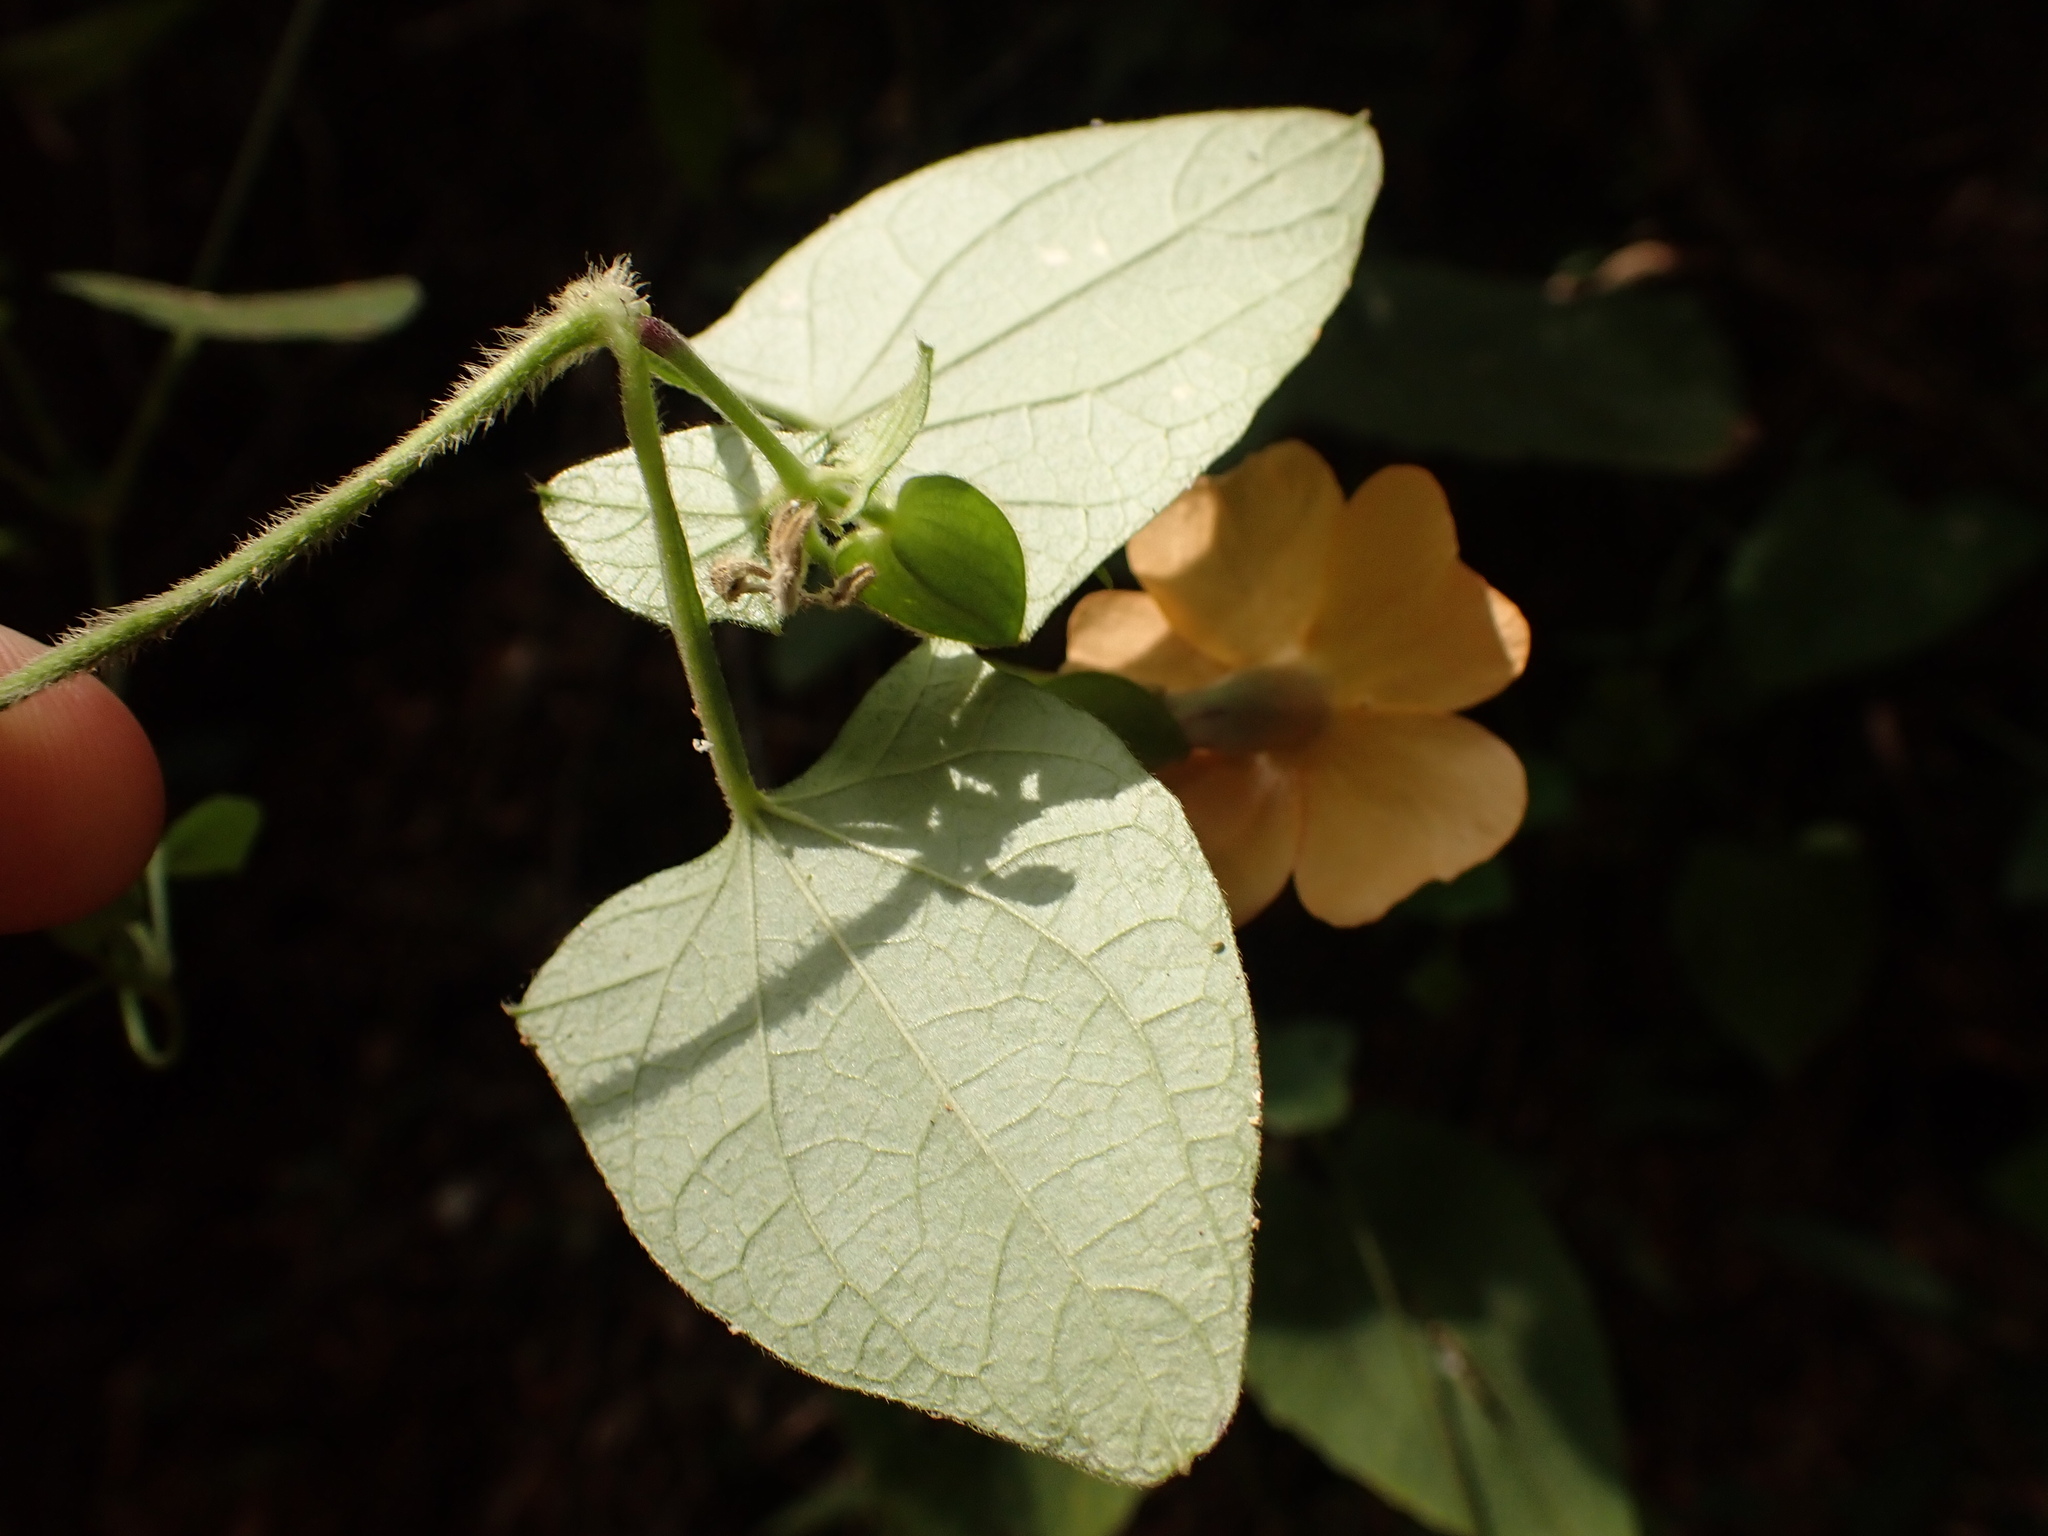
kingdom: Plantae
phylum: Tracheophyta
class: Magnoliopsida
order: Lamiales
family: Acanthaceae
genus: Thunbergia
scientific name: Thunbergia alata
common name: Blackeyed susan vine
